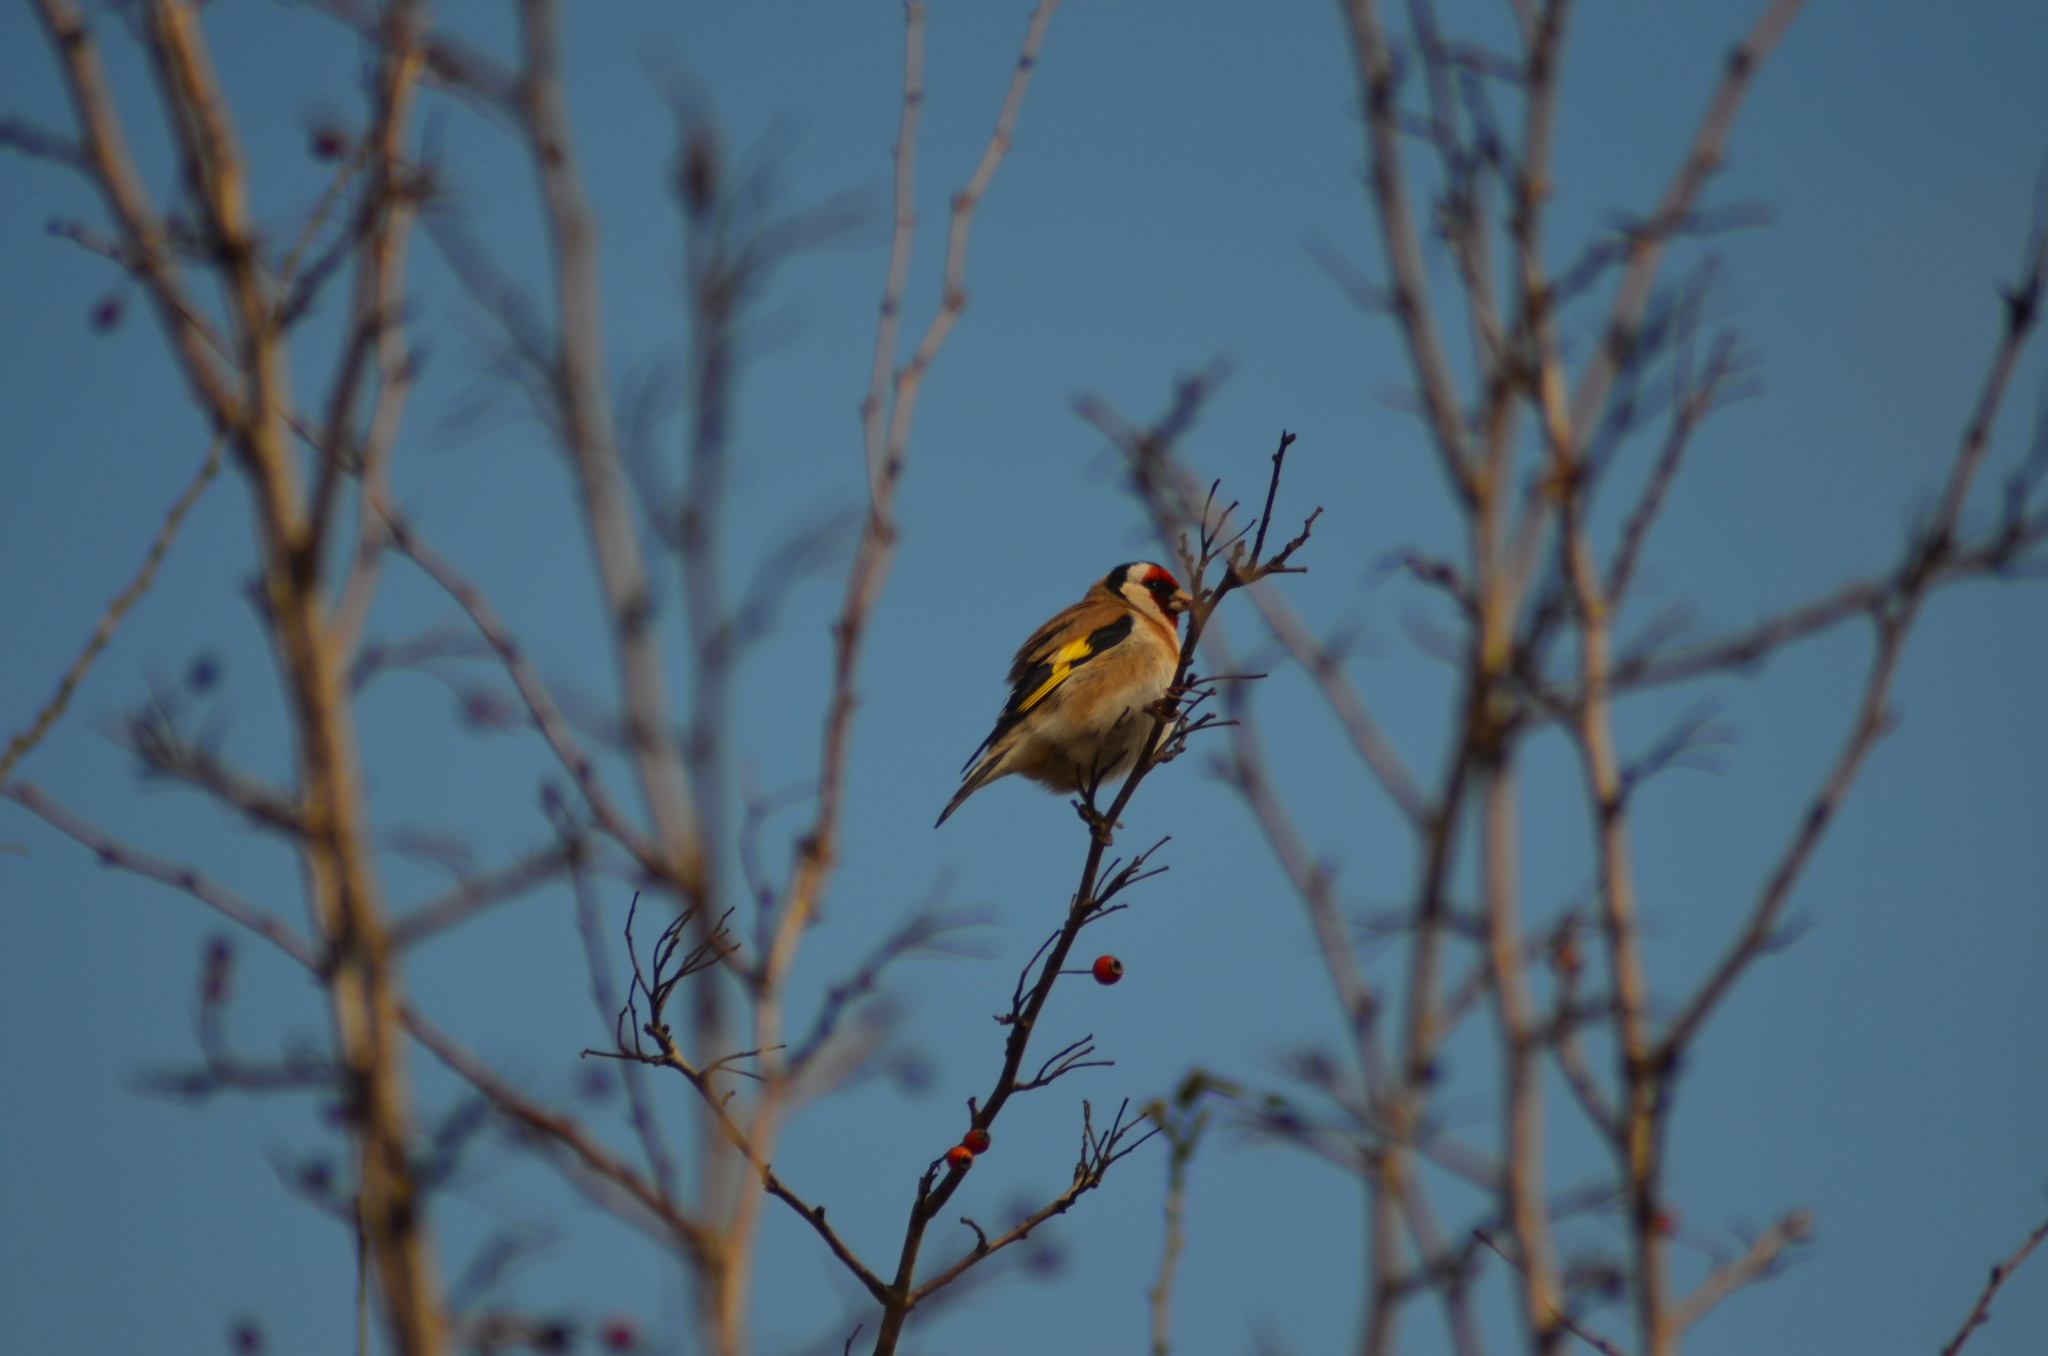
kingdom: Animalia
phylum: Chordata
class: Aves
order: Passeriformes
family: Fringillidae
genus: Carduelis
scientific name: Carduelis carduelis
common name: European goldfinch
